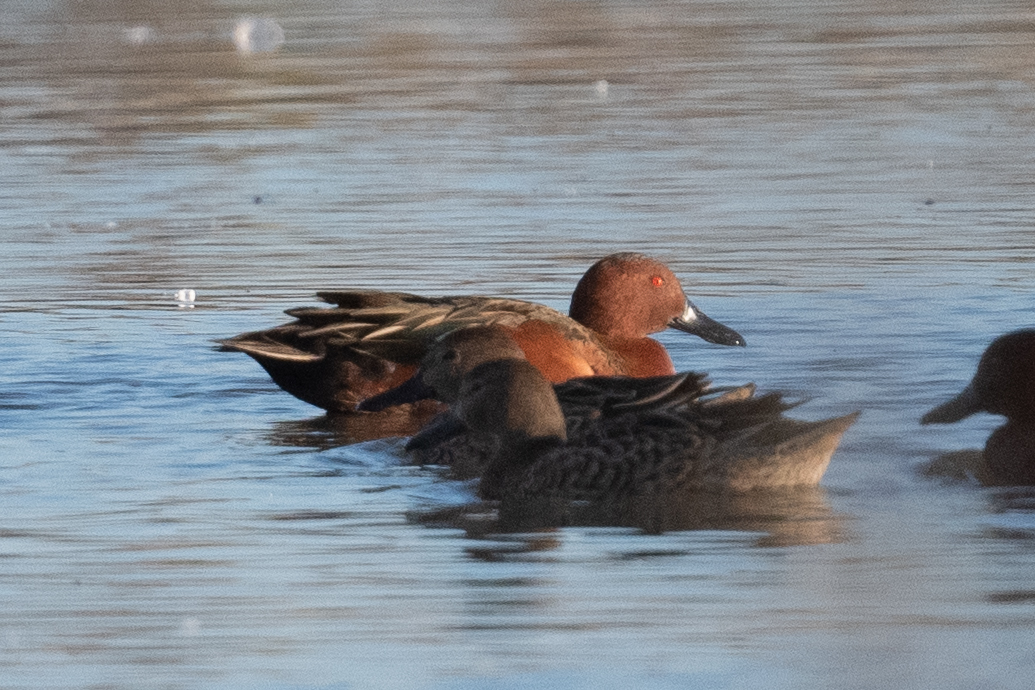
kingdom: Animalia
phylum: Chordata
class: Aves
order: Anseriformes
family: Anatidae
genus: Spatula
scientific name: Spatula cyanoptera
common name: Cinnamon teal
